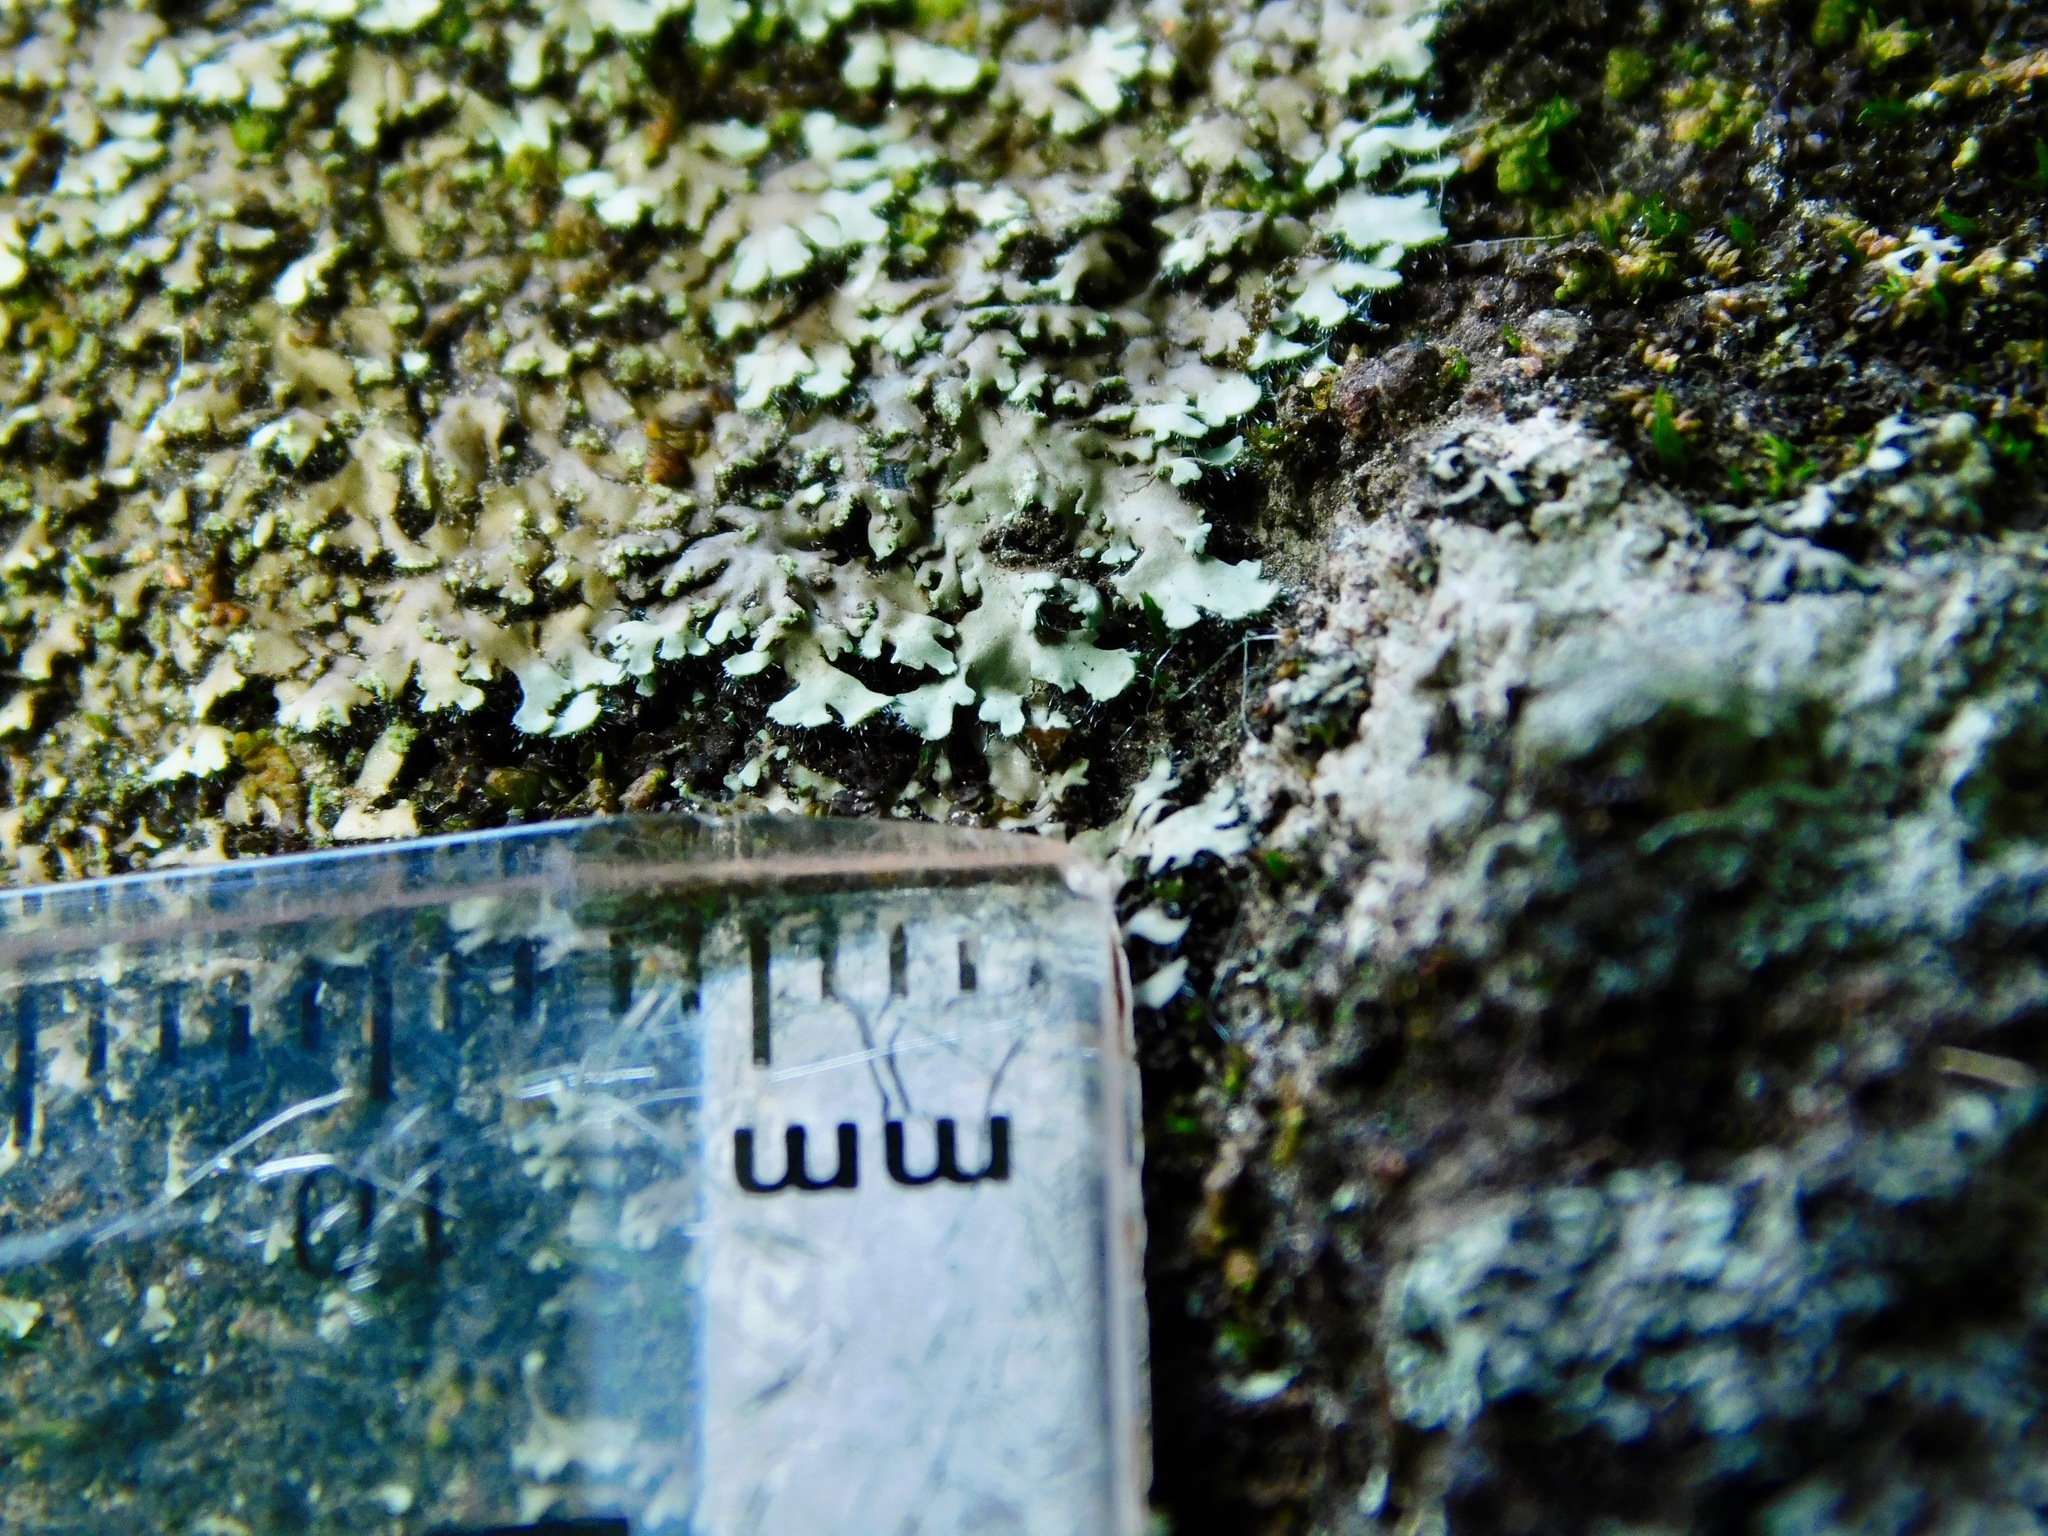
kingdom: Fungi
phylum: Ascomycota
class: Lecanoromycetes
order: Caliciales
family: Physciaceae
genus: Phaeophyscia
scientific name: Phaeophyscia adiastola
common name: Powder-tipped shadow lichen
